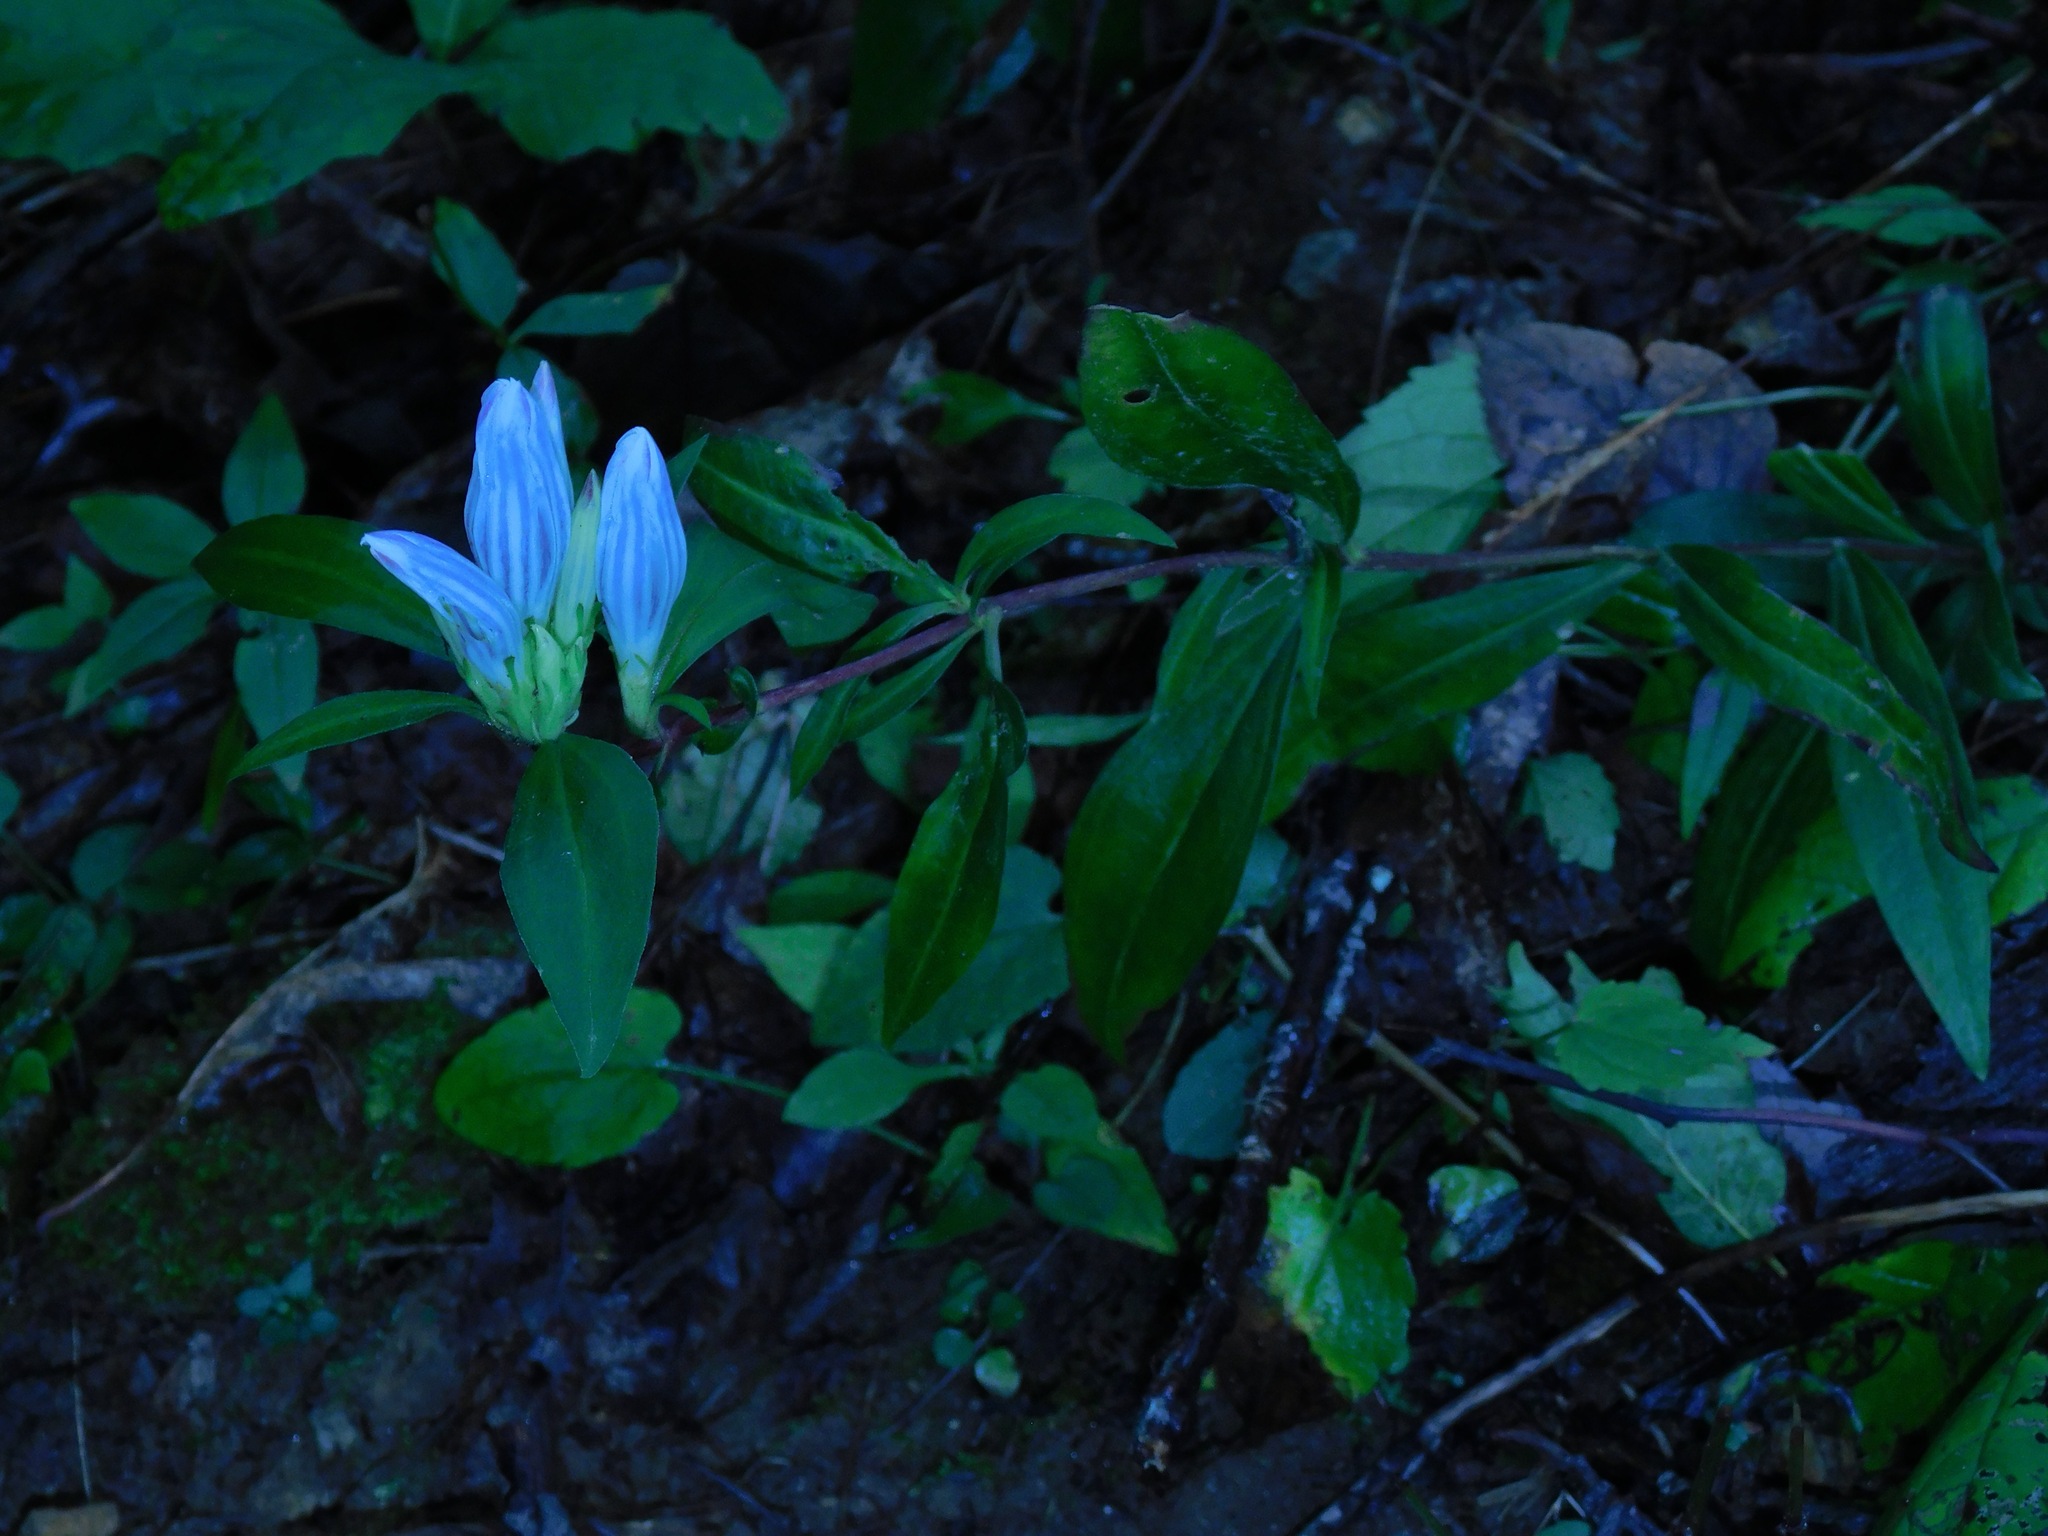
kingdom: Plantae
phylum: Tracheophyta
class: Magnoliopsida
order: Gentianales
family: Gentianaceae
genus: Gentiana
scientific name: Gentiana linearis
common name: Bastard gentian
